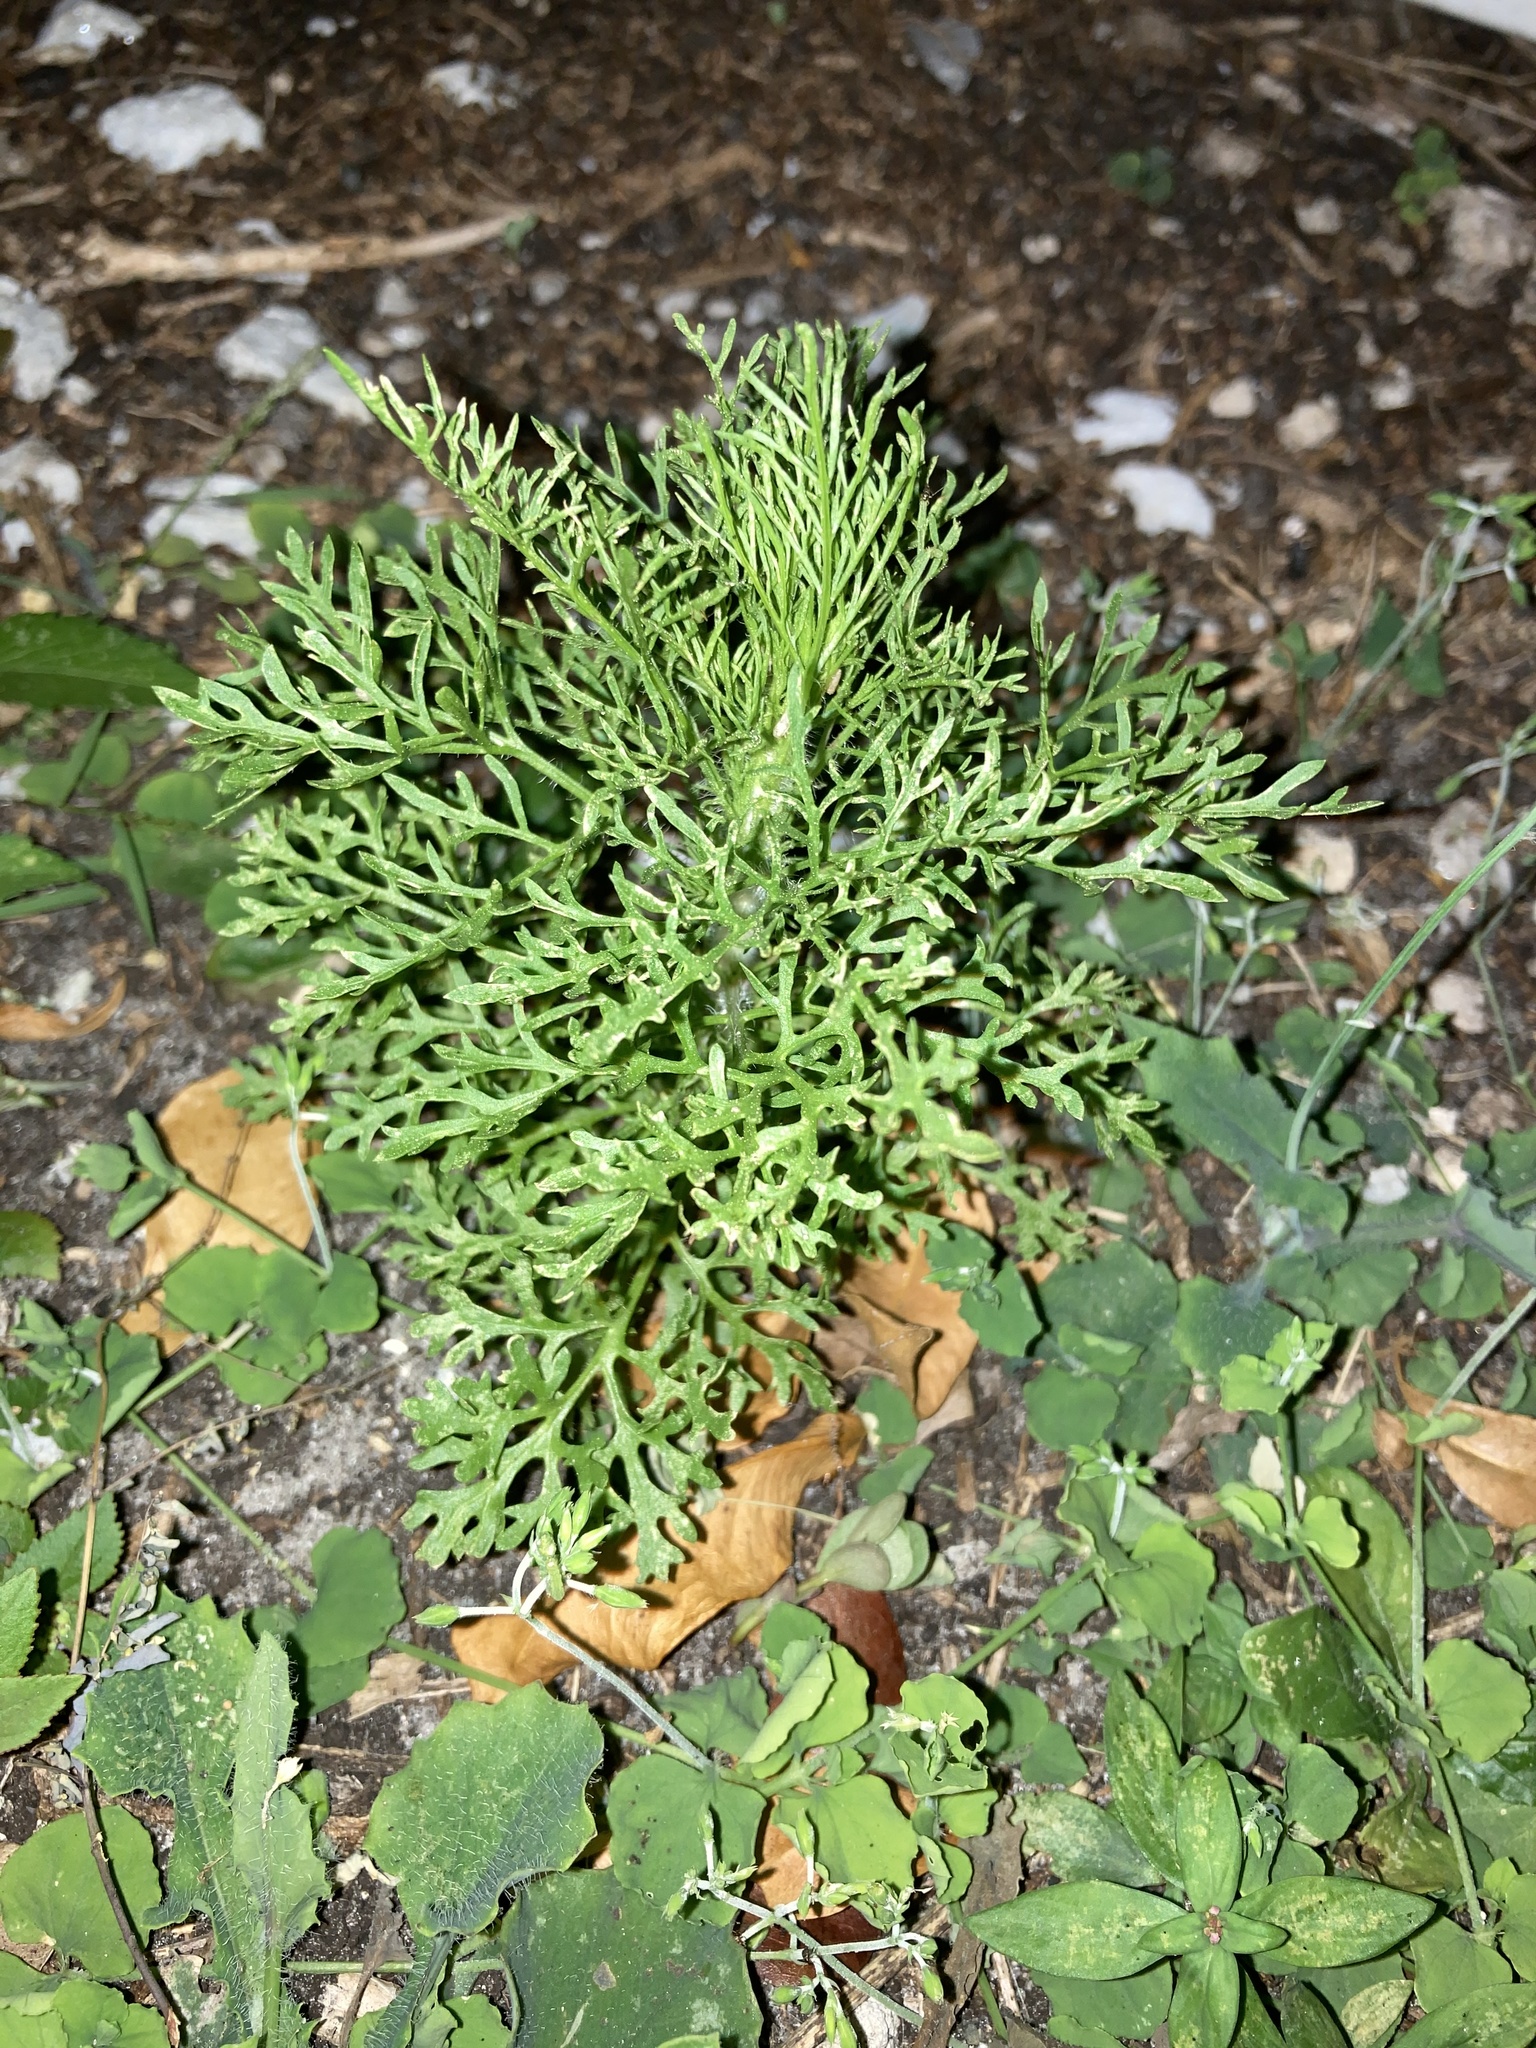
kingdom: Plantae
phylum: Tracheophyta
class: Magnoliopsida
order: Asterales
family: Asteraceae
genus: Eupatorium
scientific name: Eupatorium capillifolium
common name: Dog-fennel
